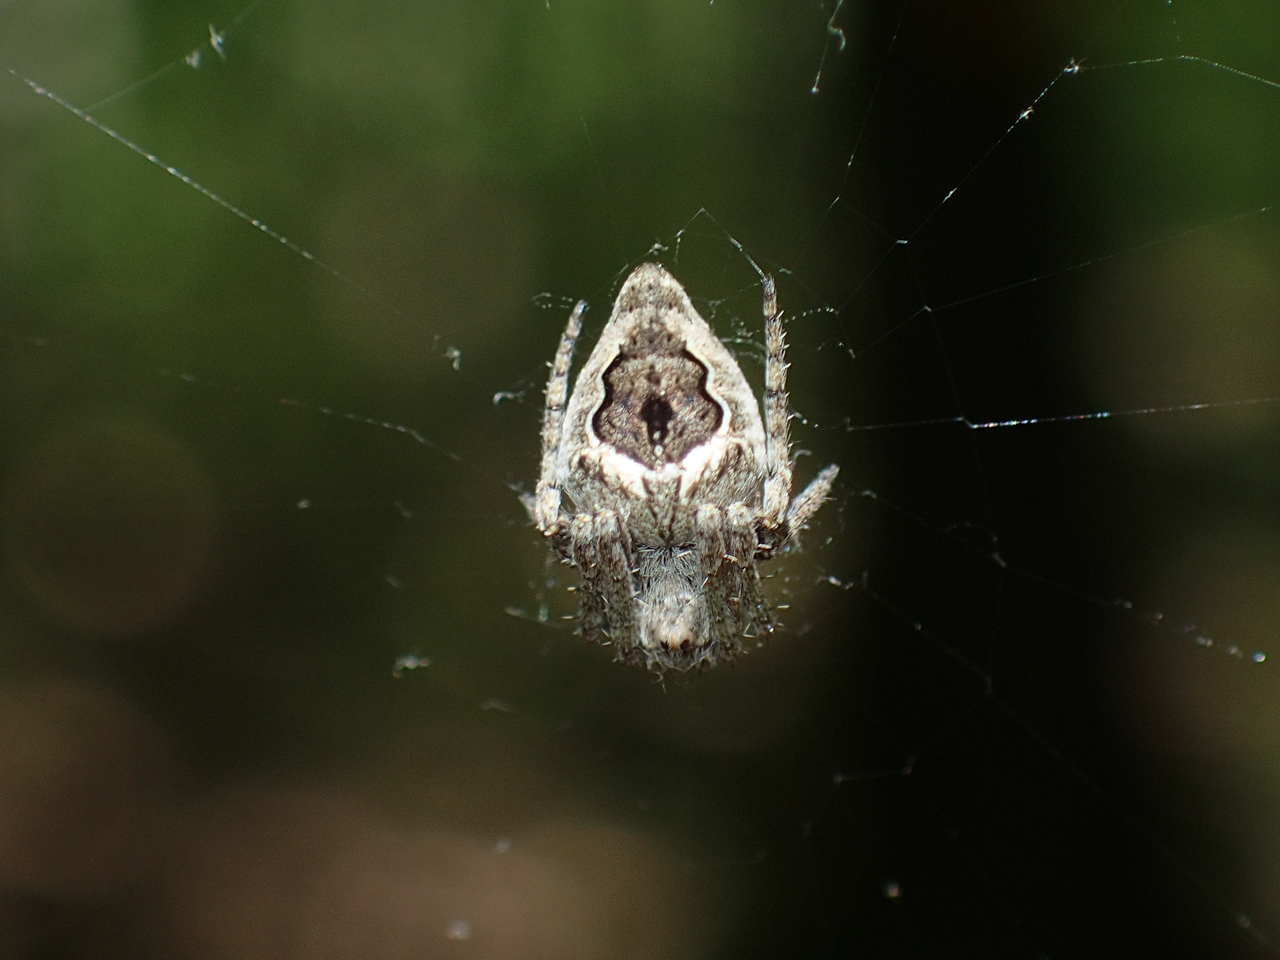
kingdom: Animalia
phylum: Arthropoda
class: Arachnida
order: Araneae
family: Araneidae
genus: Eustala
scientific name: Eustala anastera
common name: Orb weavers
